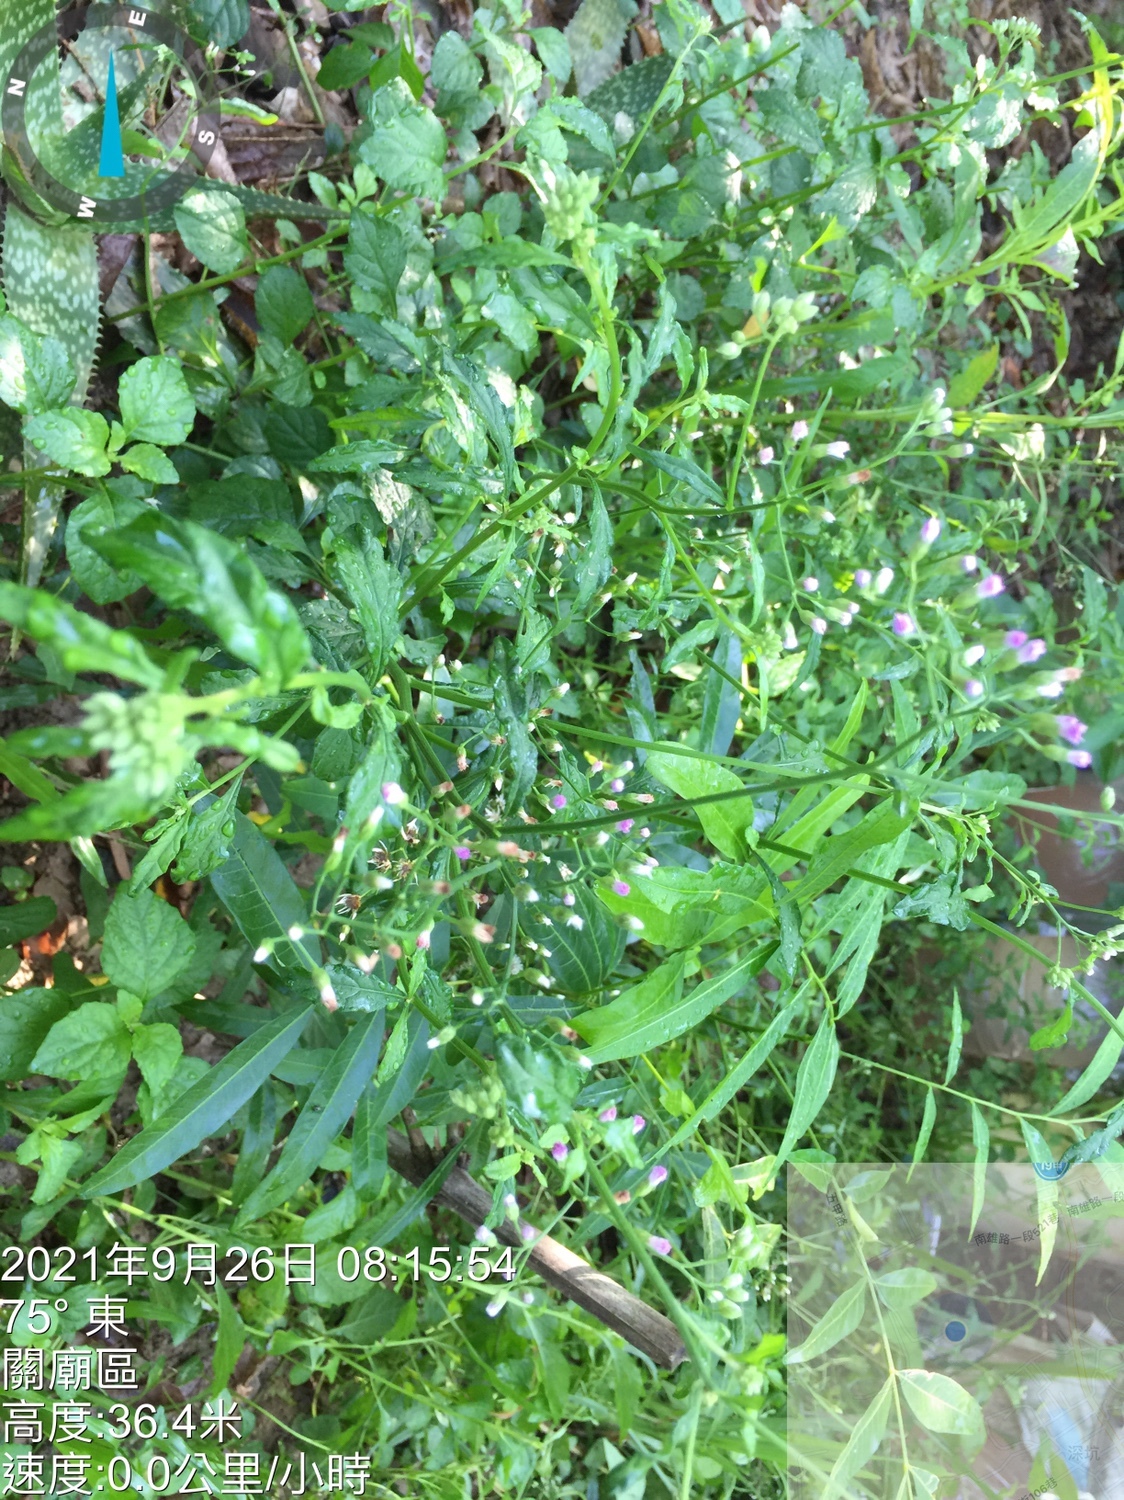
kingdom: Plantae
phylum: Tracheophyta
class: Magnoliopsida
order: Asterales
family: Asteraceae
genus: Cyanthillium
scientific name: Cyanthillium cinereum
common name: Little ironweed
